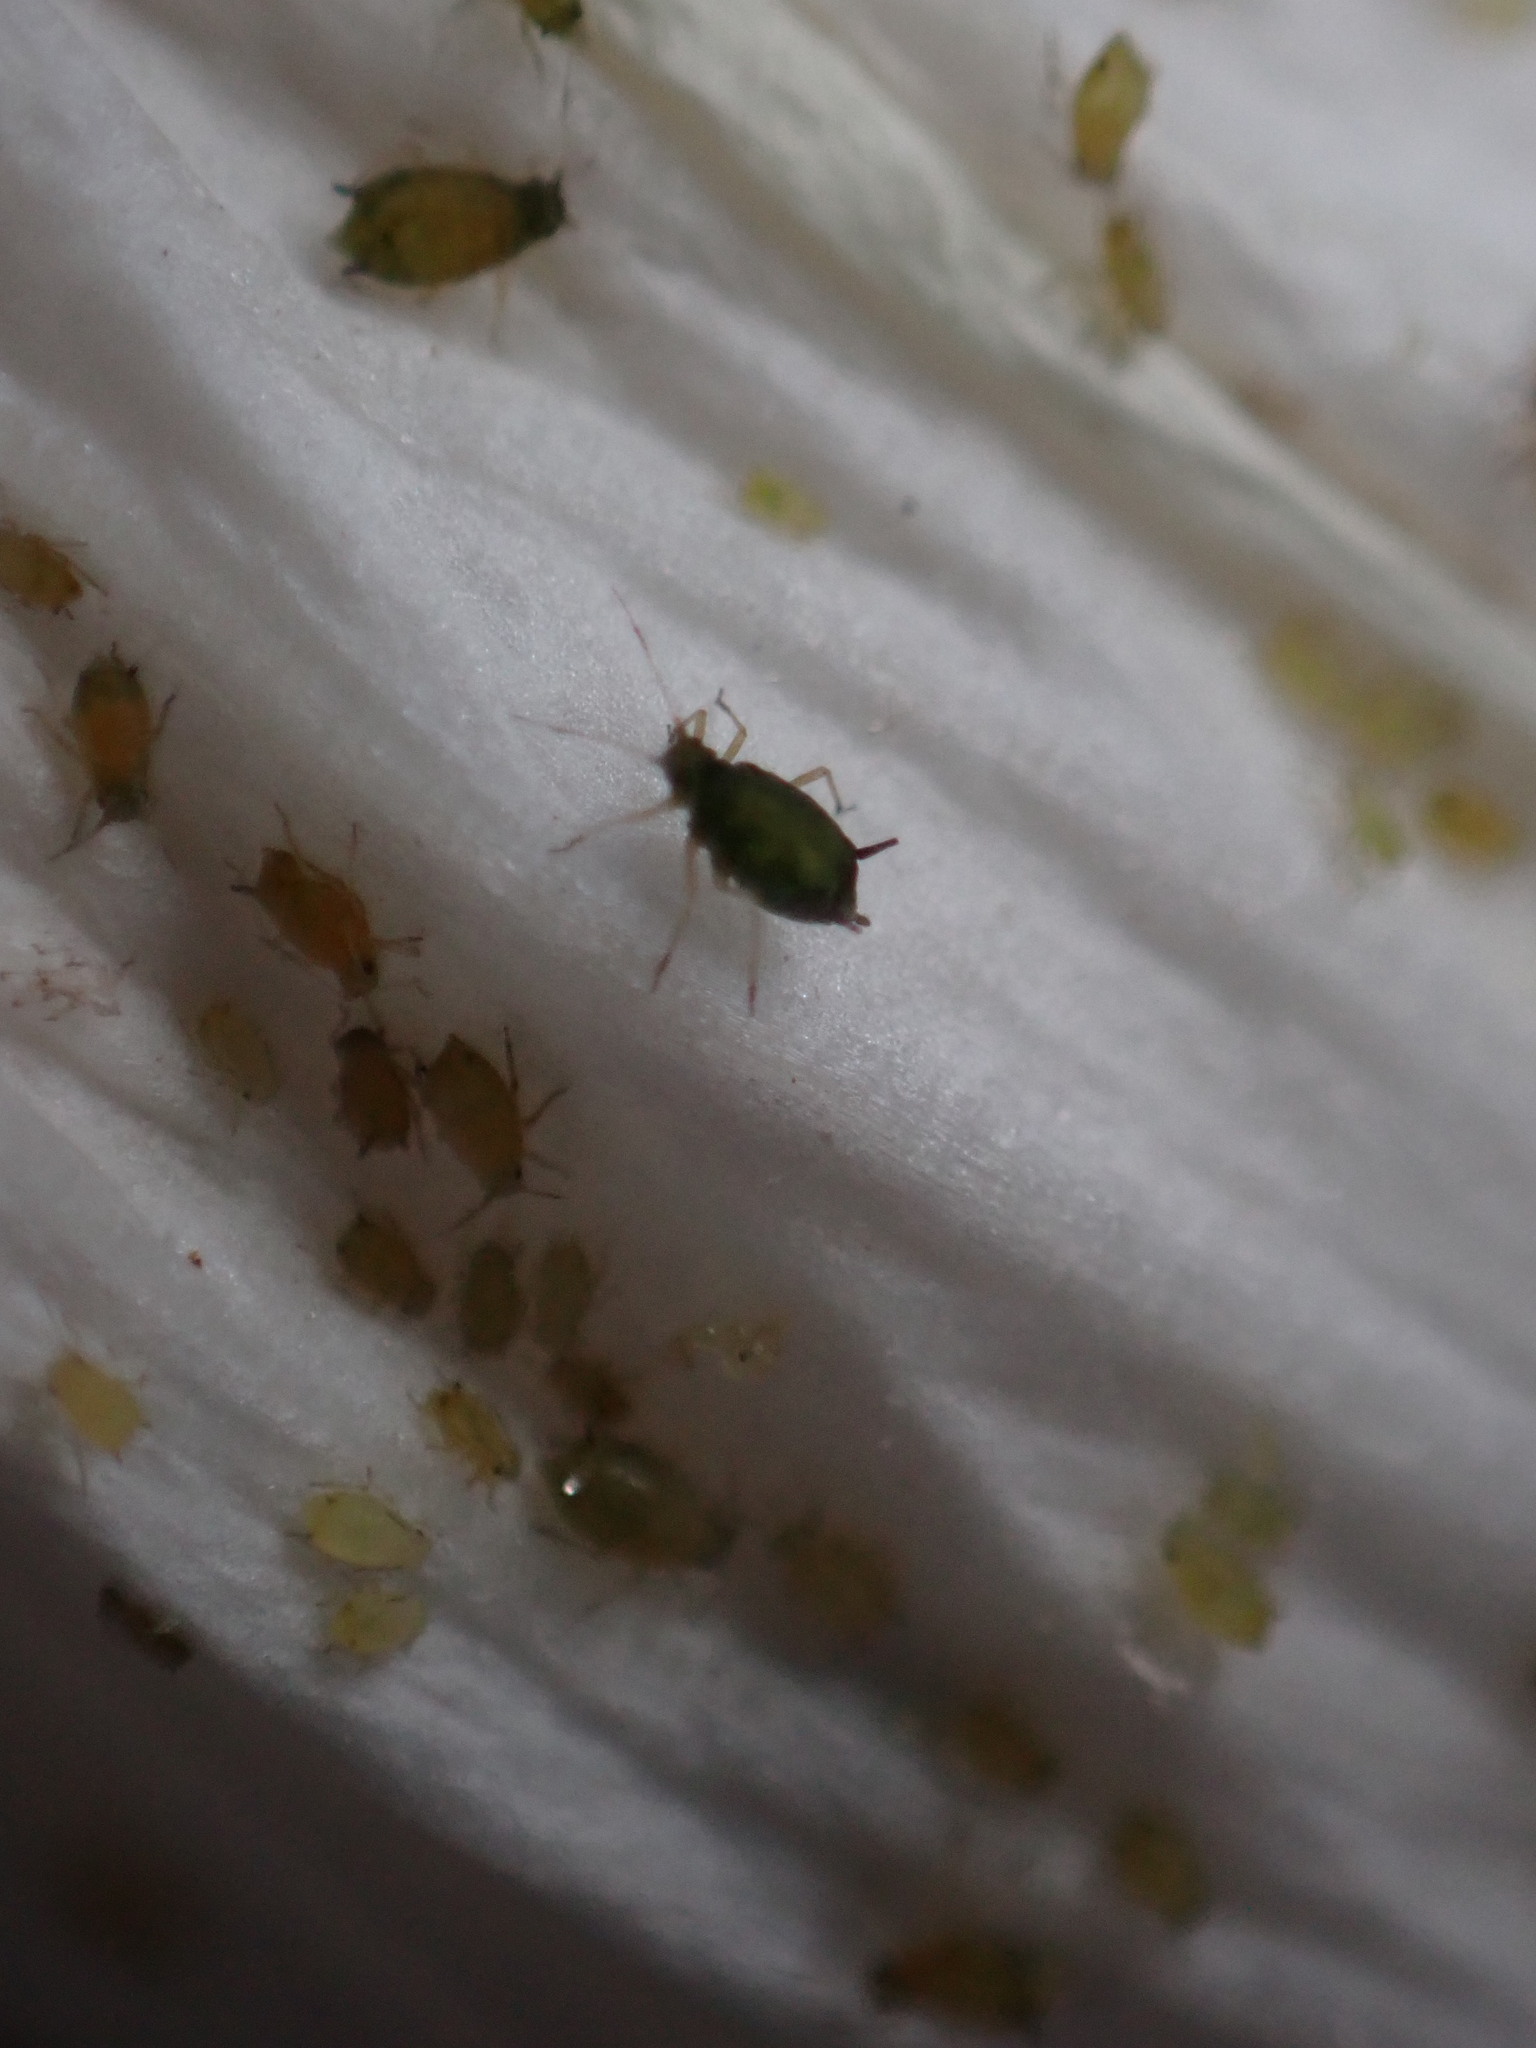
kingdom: Animalia
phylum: Arthropoda
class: Insecta
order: Hemiptera
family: Aphididae
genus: Aphis
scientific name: Aphis gossypii
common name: Melon aphid
